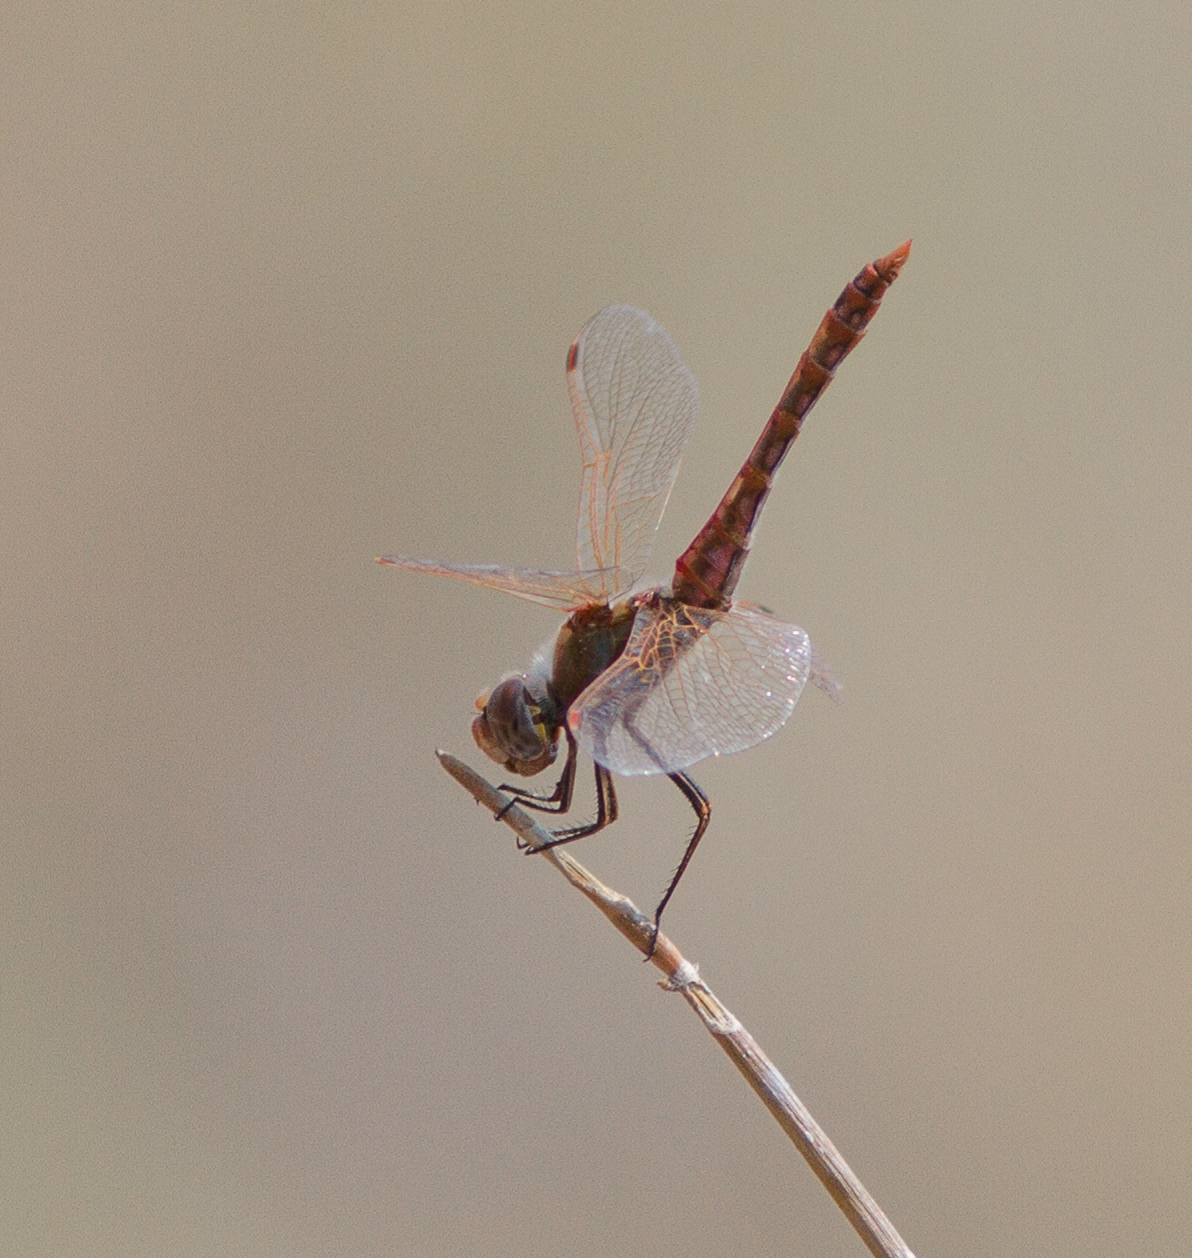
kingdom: Animalia
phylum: Arthropoda
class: Insecta
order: Odonata
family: Libellulidae
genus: Sympetrum
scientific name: Sympetrum corruptum
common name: Variegated meadowhawk
